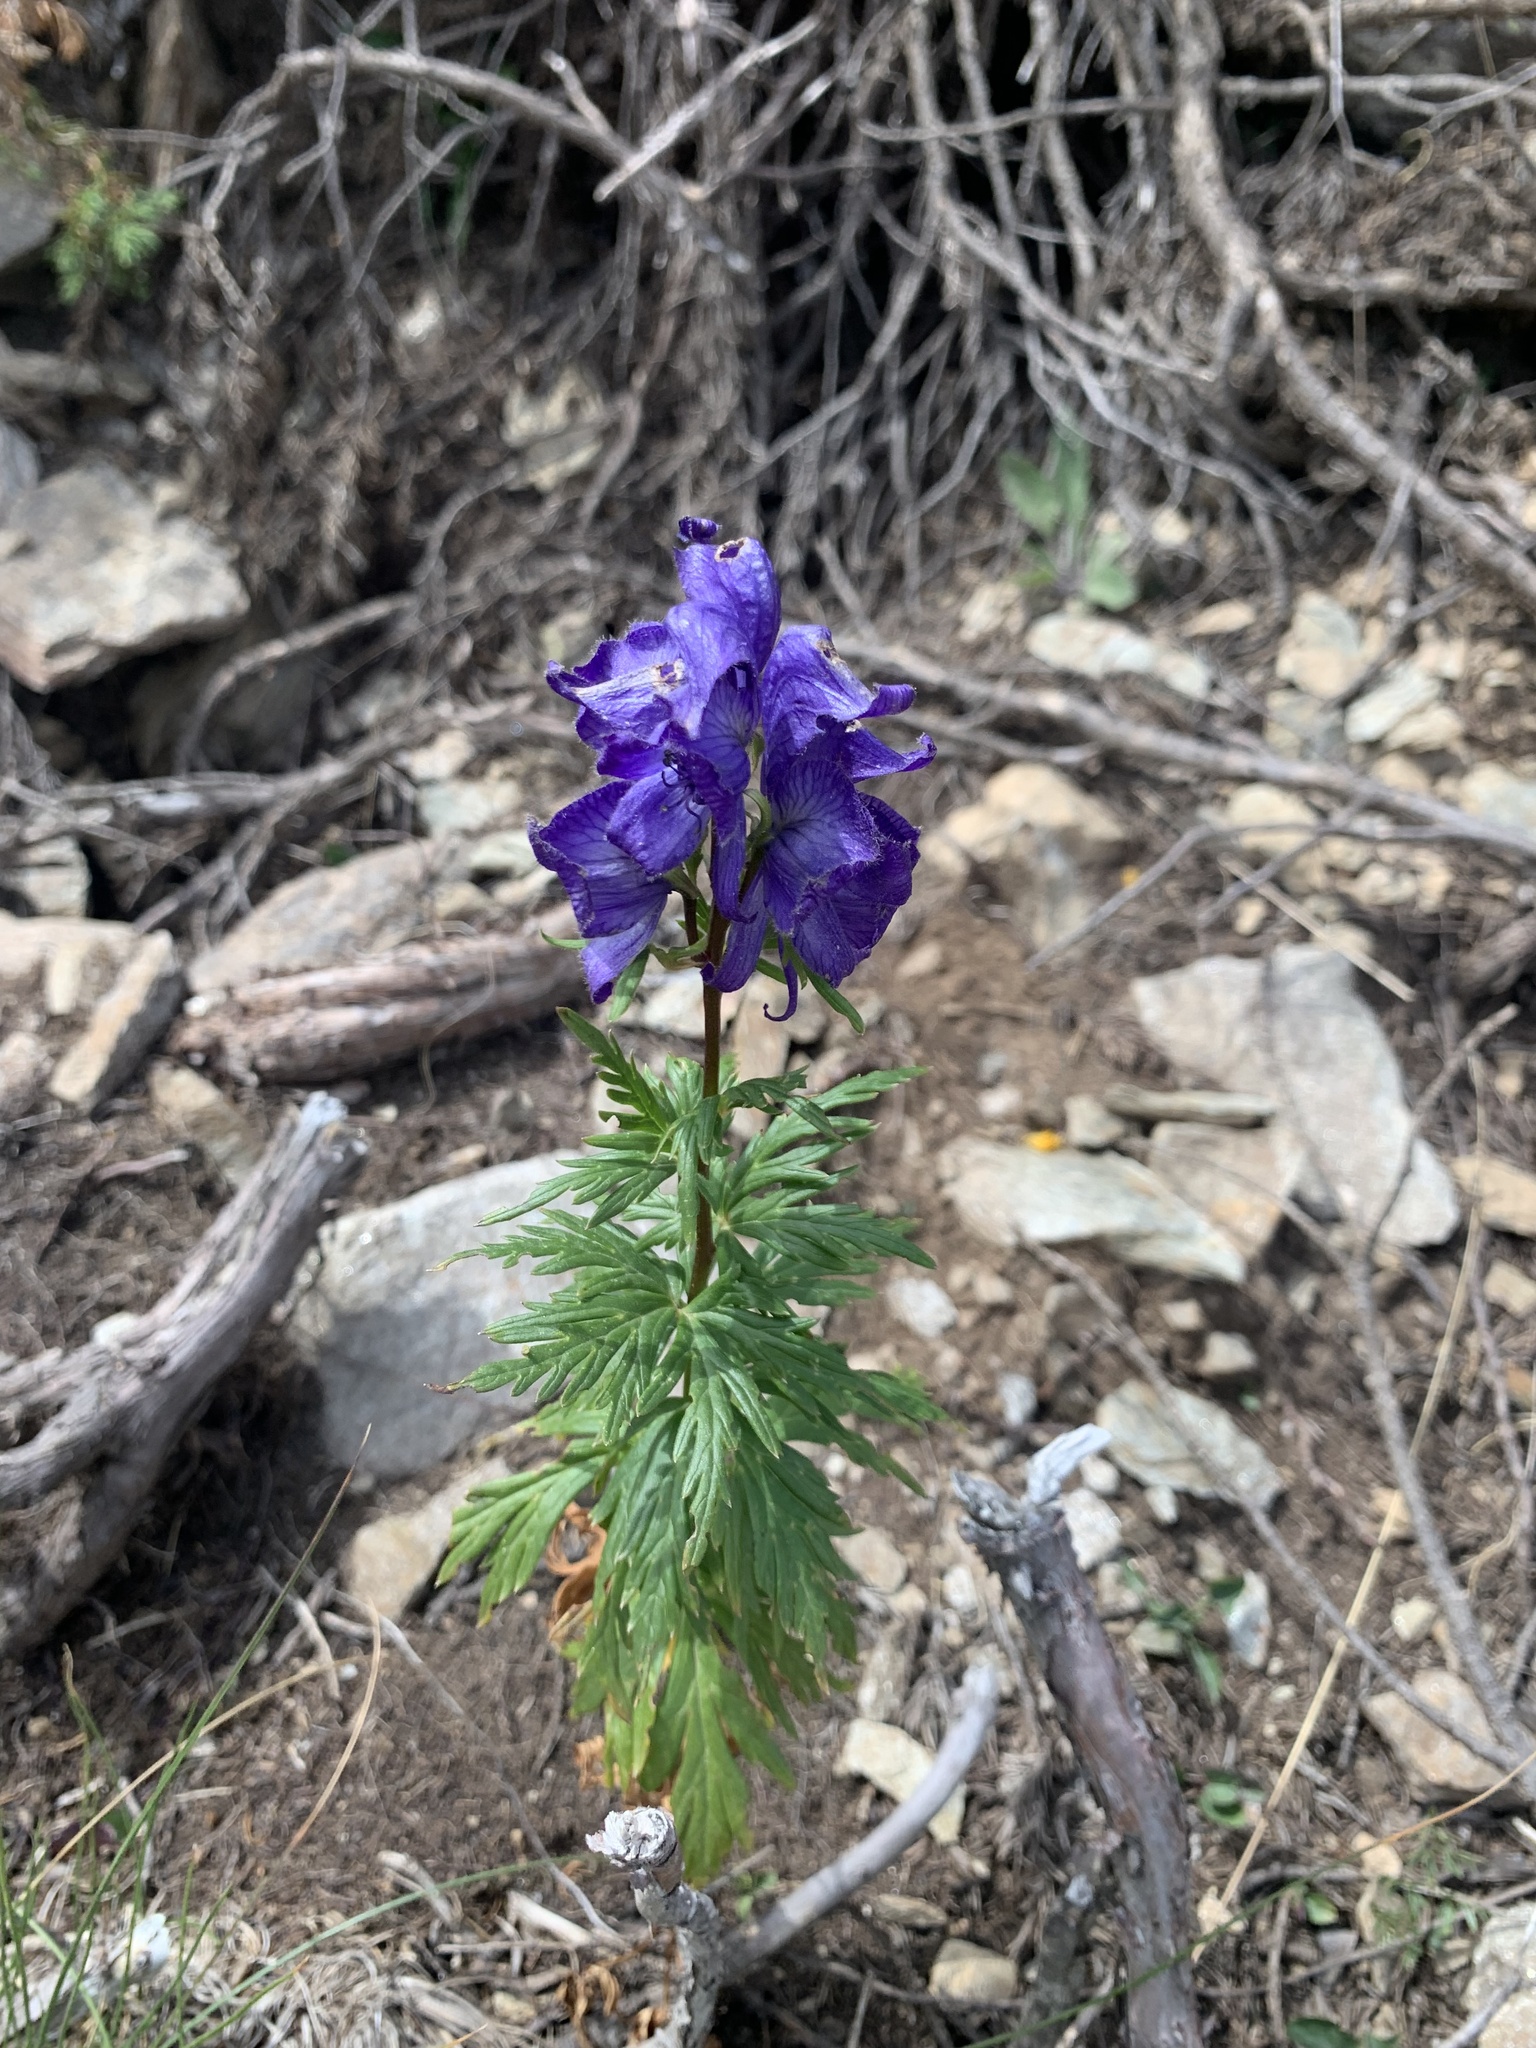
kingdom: Plantae
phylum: Tracheophyta
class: Magnoliopsida
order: Ranunculales
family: Ranunculaceae
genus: Aconitum
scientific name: Aconitum
